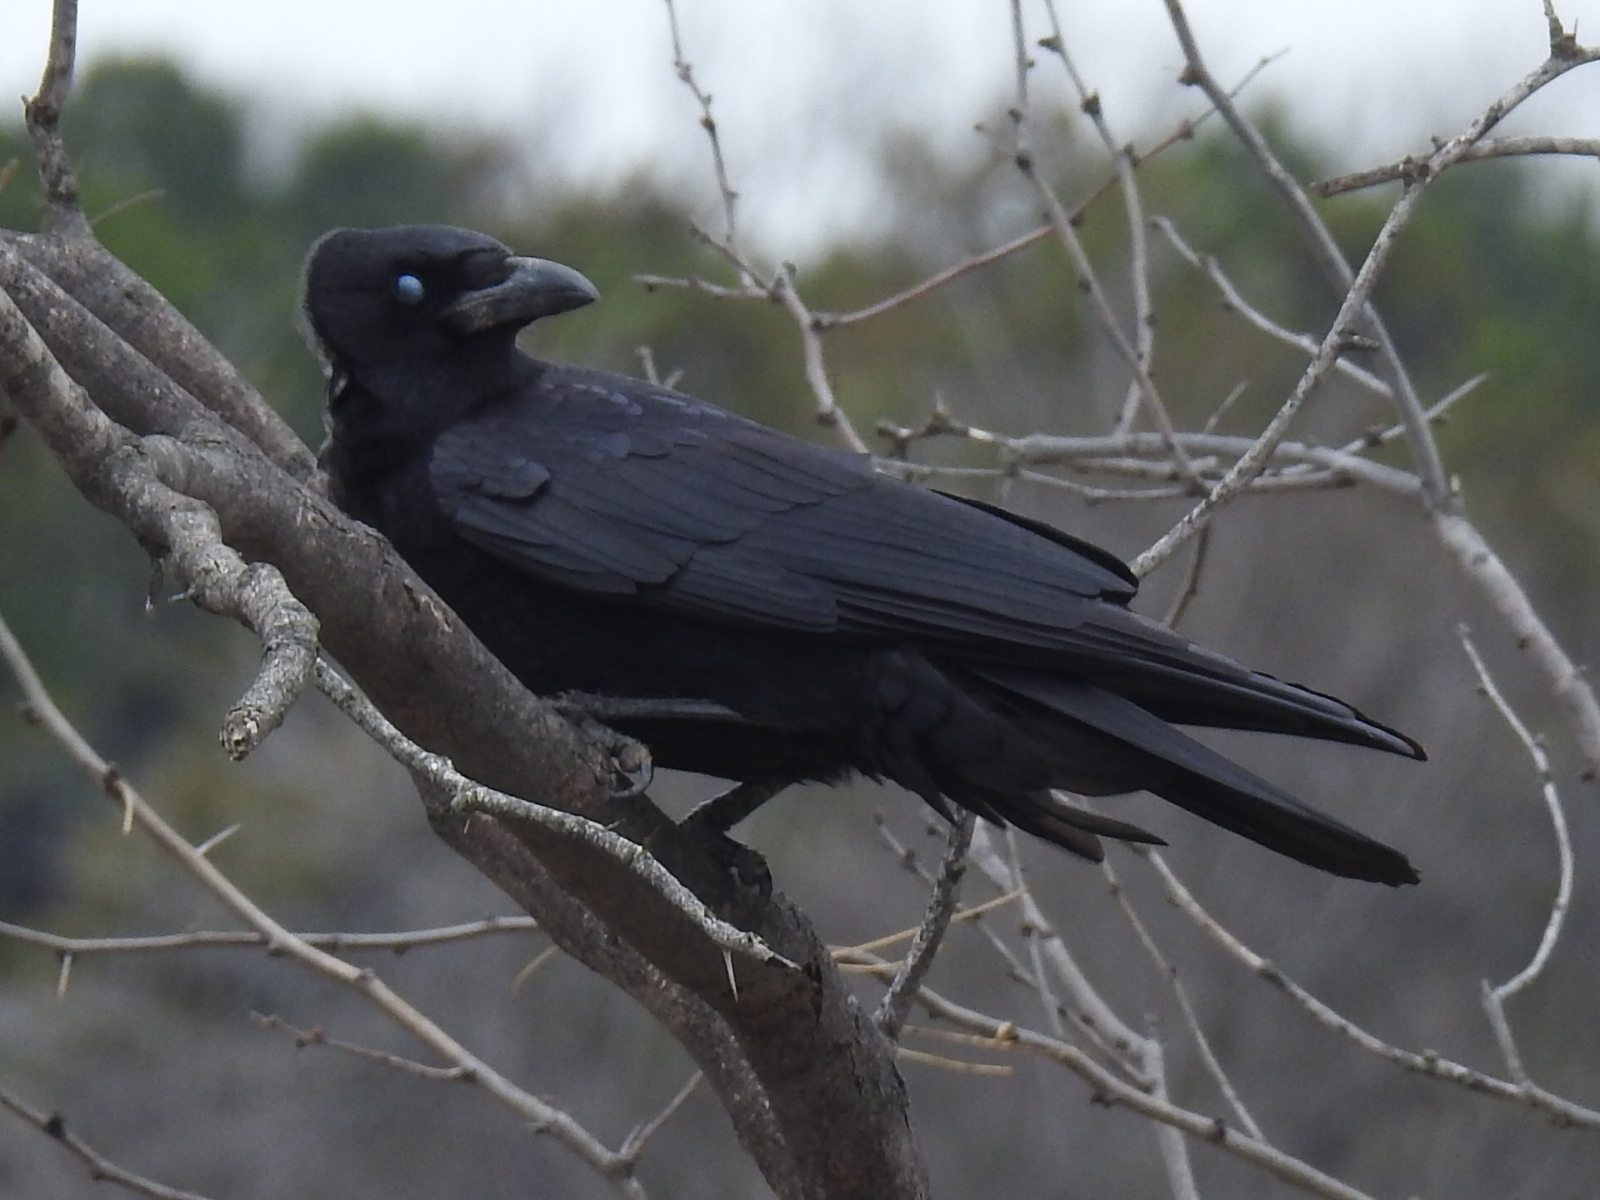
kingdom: Animalia
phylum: Chordata
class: Aves
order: Passeriformes
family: Corvidae
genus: Corvus
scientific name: Corvus brachyrhynchos
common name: American crow
